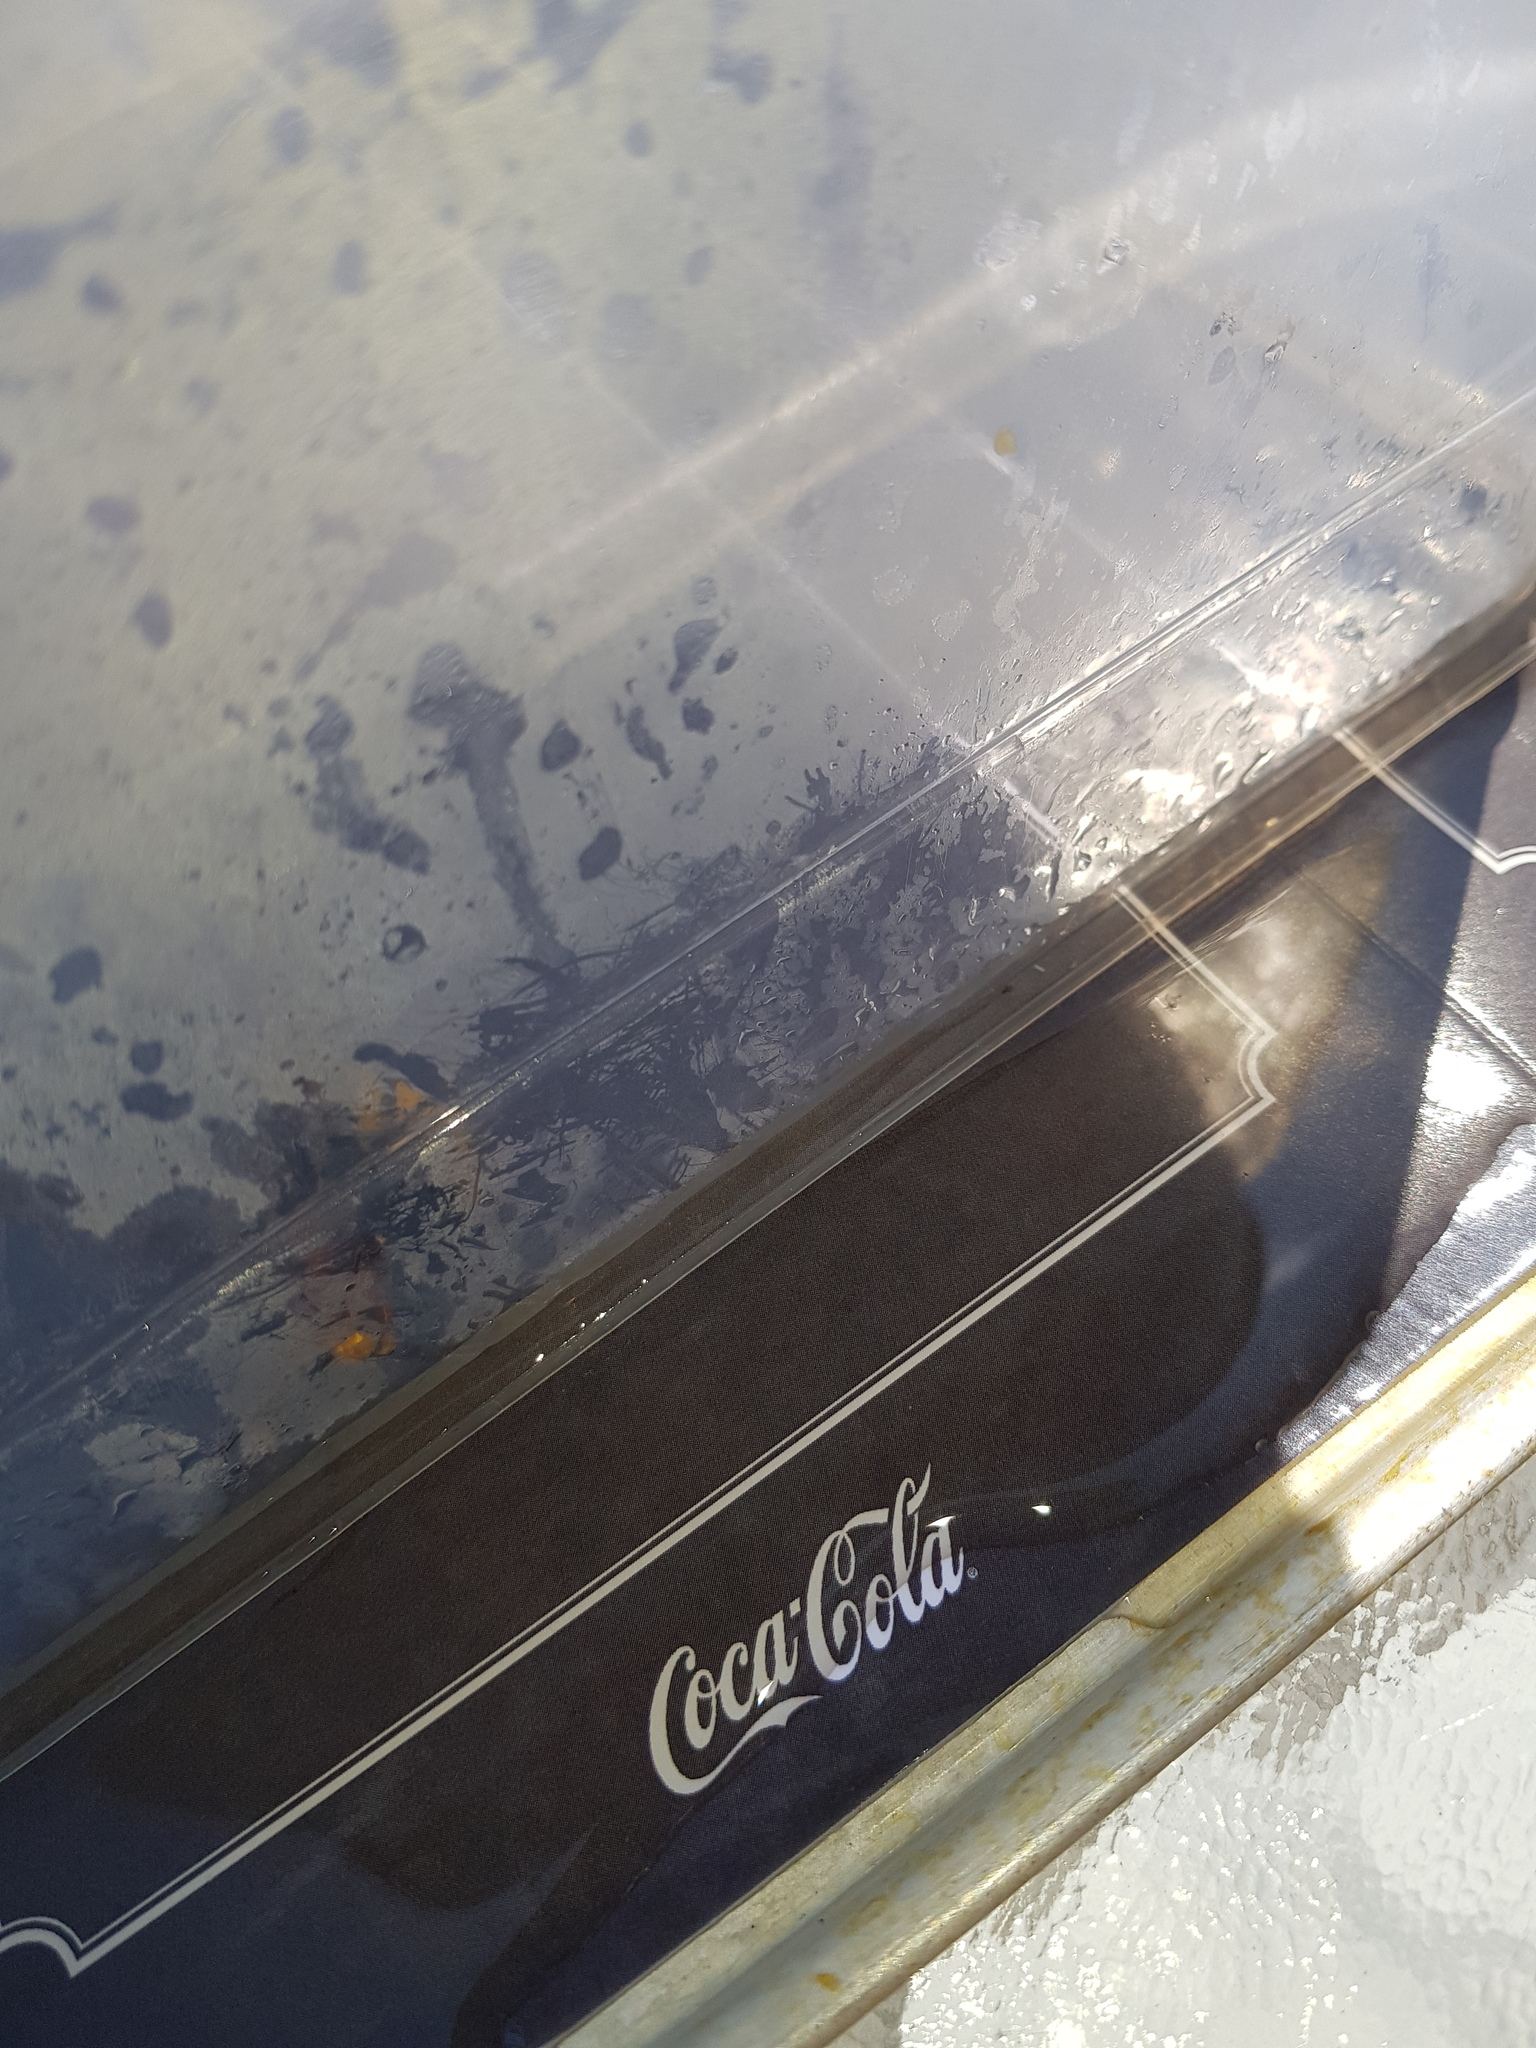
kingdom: Animalia
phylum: Arthropoda
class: Insecta
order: Hymenoptera
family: Vespidae
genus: Vespa
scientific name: Vespa crabro
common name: Hornet
